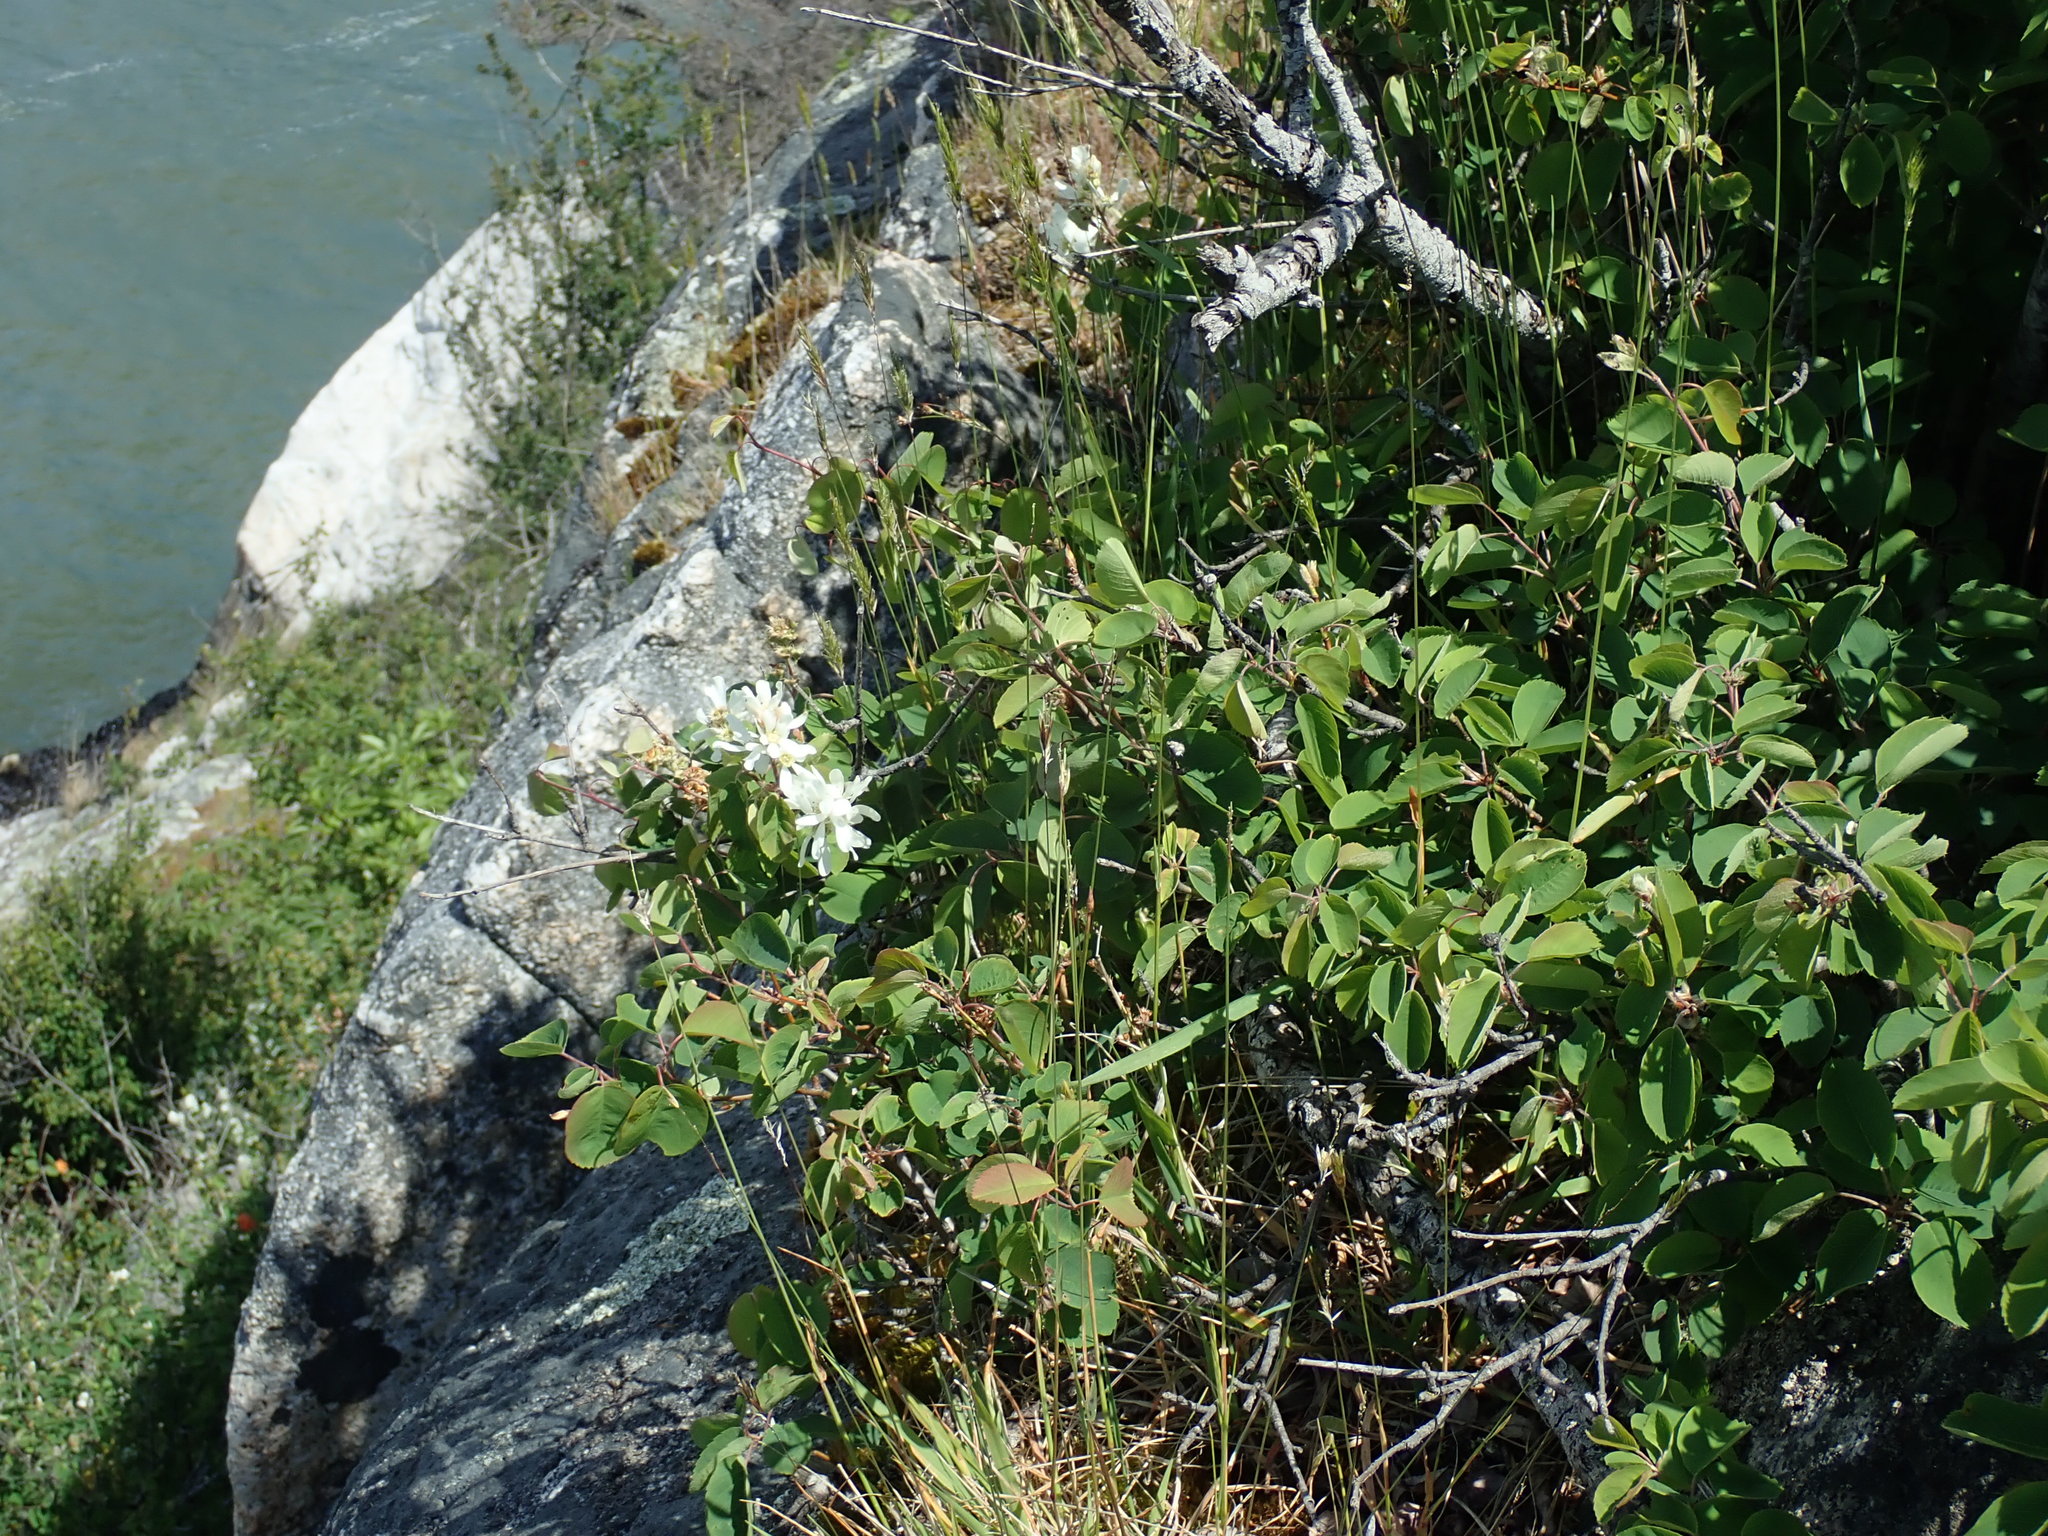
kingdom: Plantae
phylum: Tracheophyta
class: Magnoliopsida
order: Rosales
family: Rosaceae
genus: Amelanchier
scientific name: Amelanchier alnifolia
